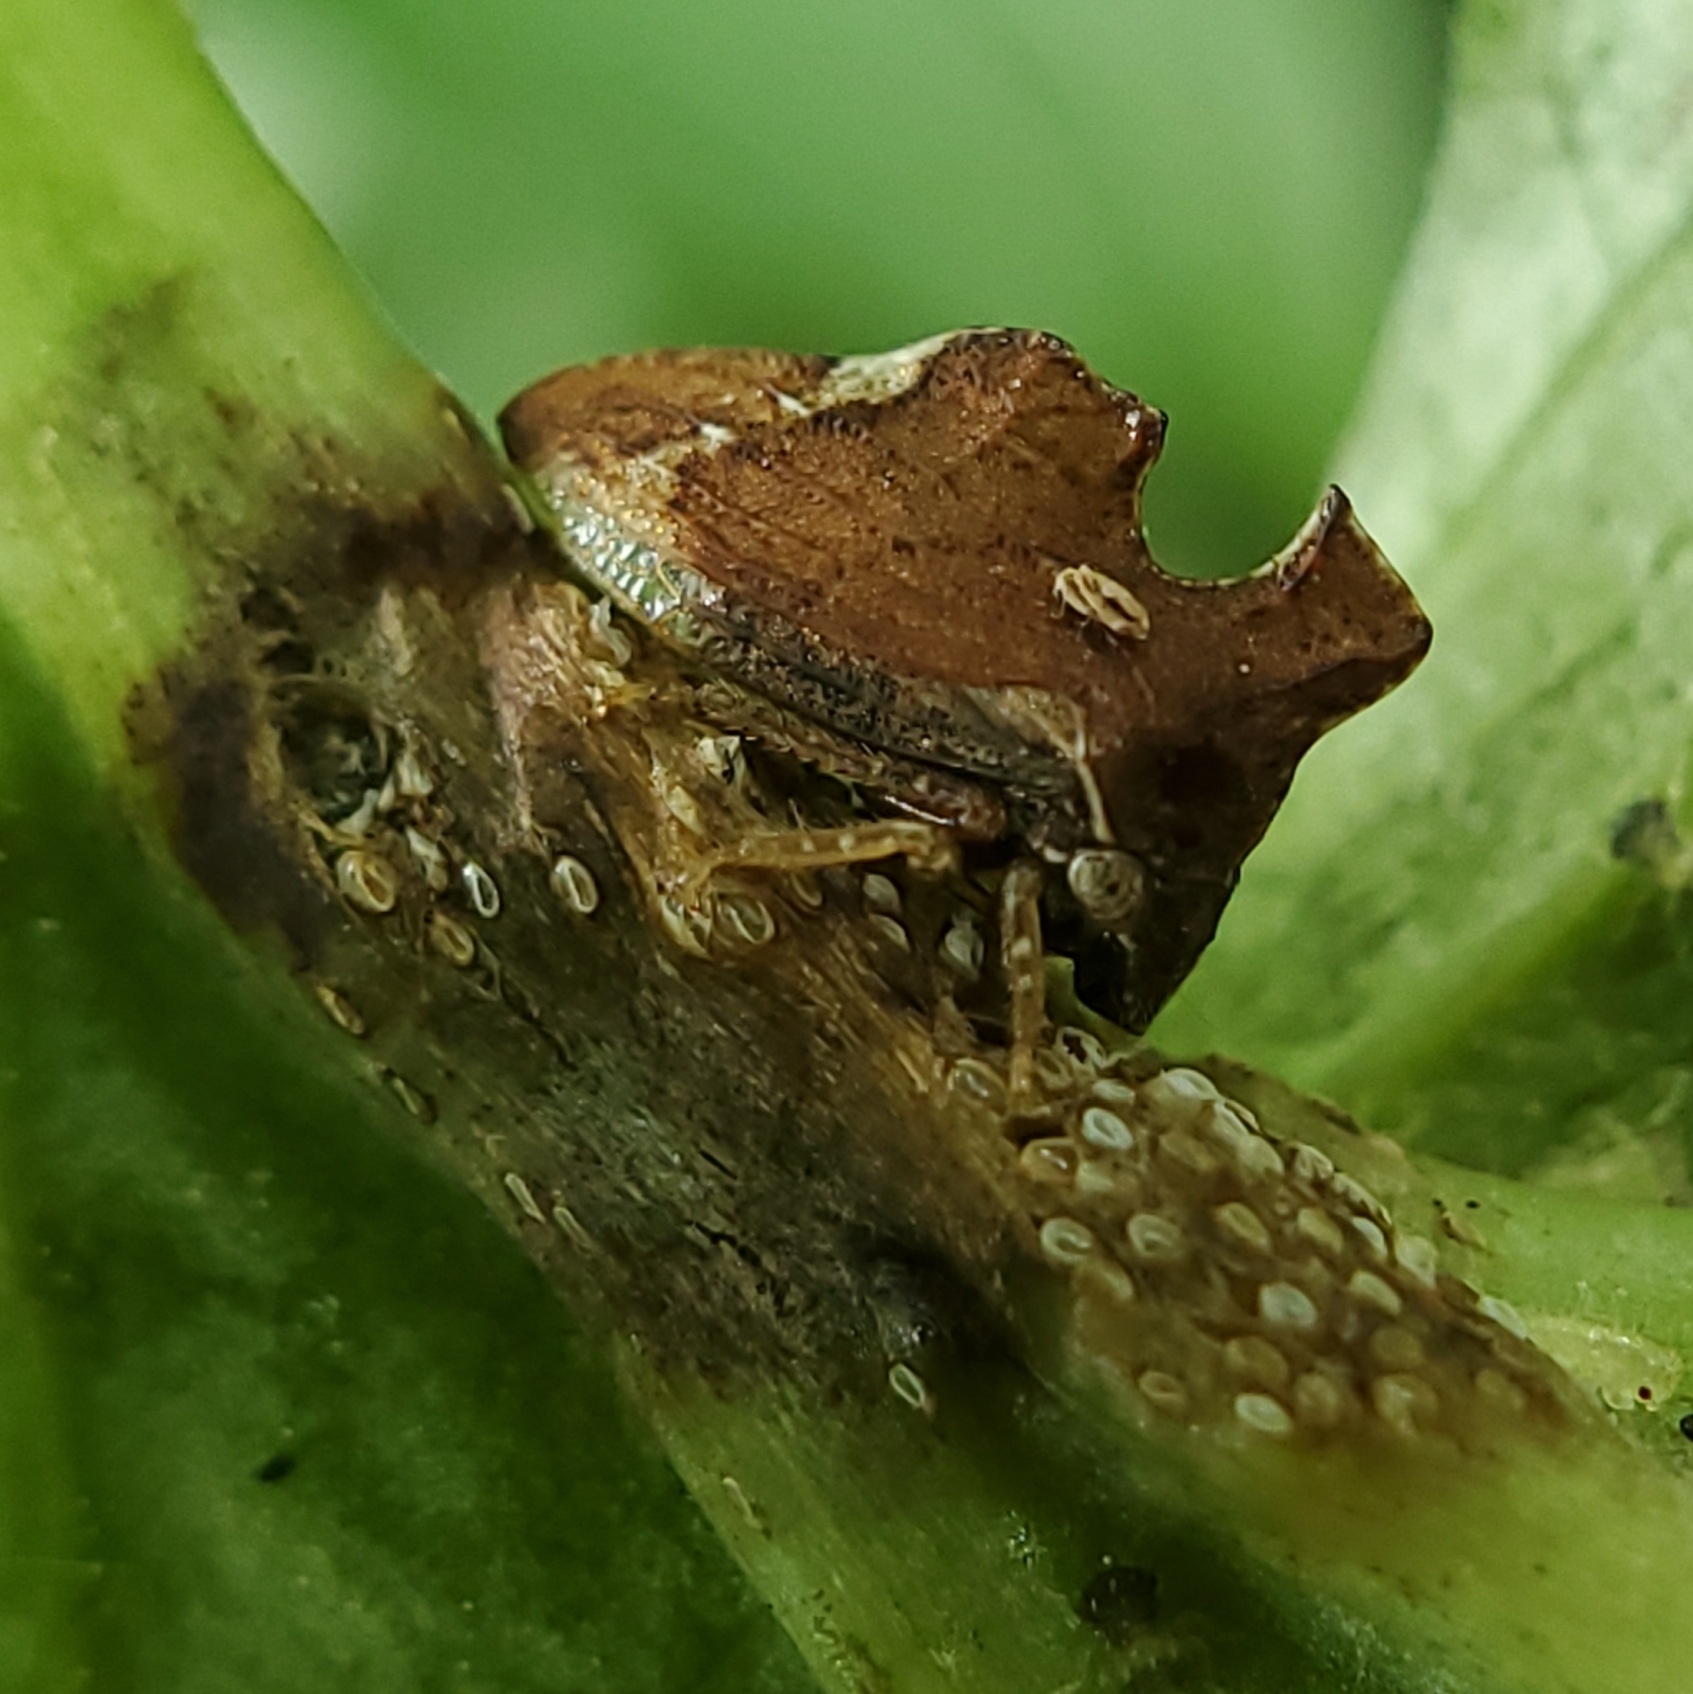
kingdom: Animalia
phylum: Arthropoda
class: Insecta
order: Hemiptera
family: Membracidae
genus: Entylia
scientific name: Entylia carinata
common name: Keeled treehopper
